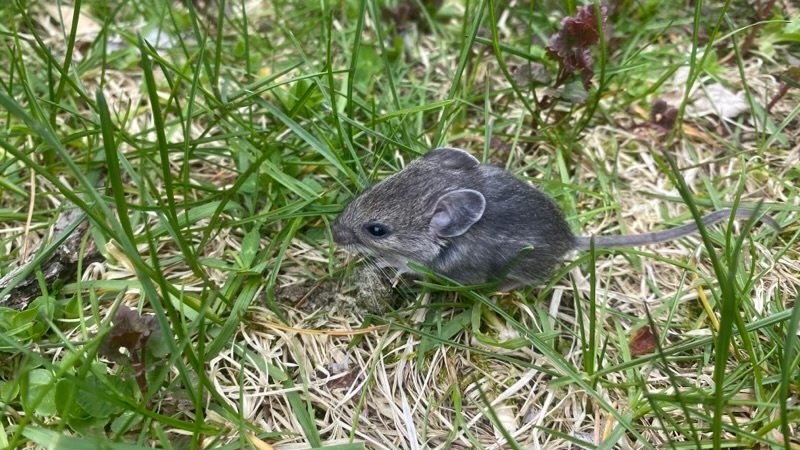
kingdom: Animalia
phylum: Chordata
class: Mammalia
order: Rodentia
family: Cricetidae
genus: Peromyscus
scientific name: Peromyscus leucopus
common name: White-footed deermouse
